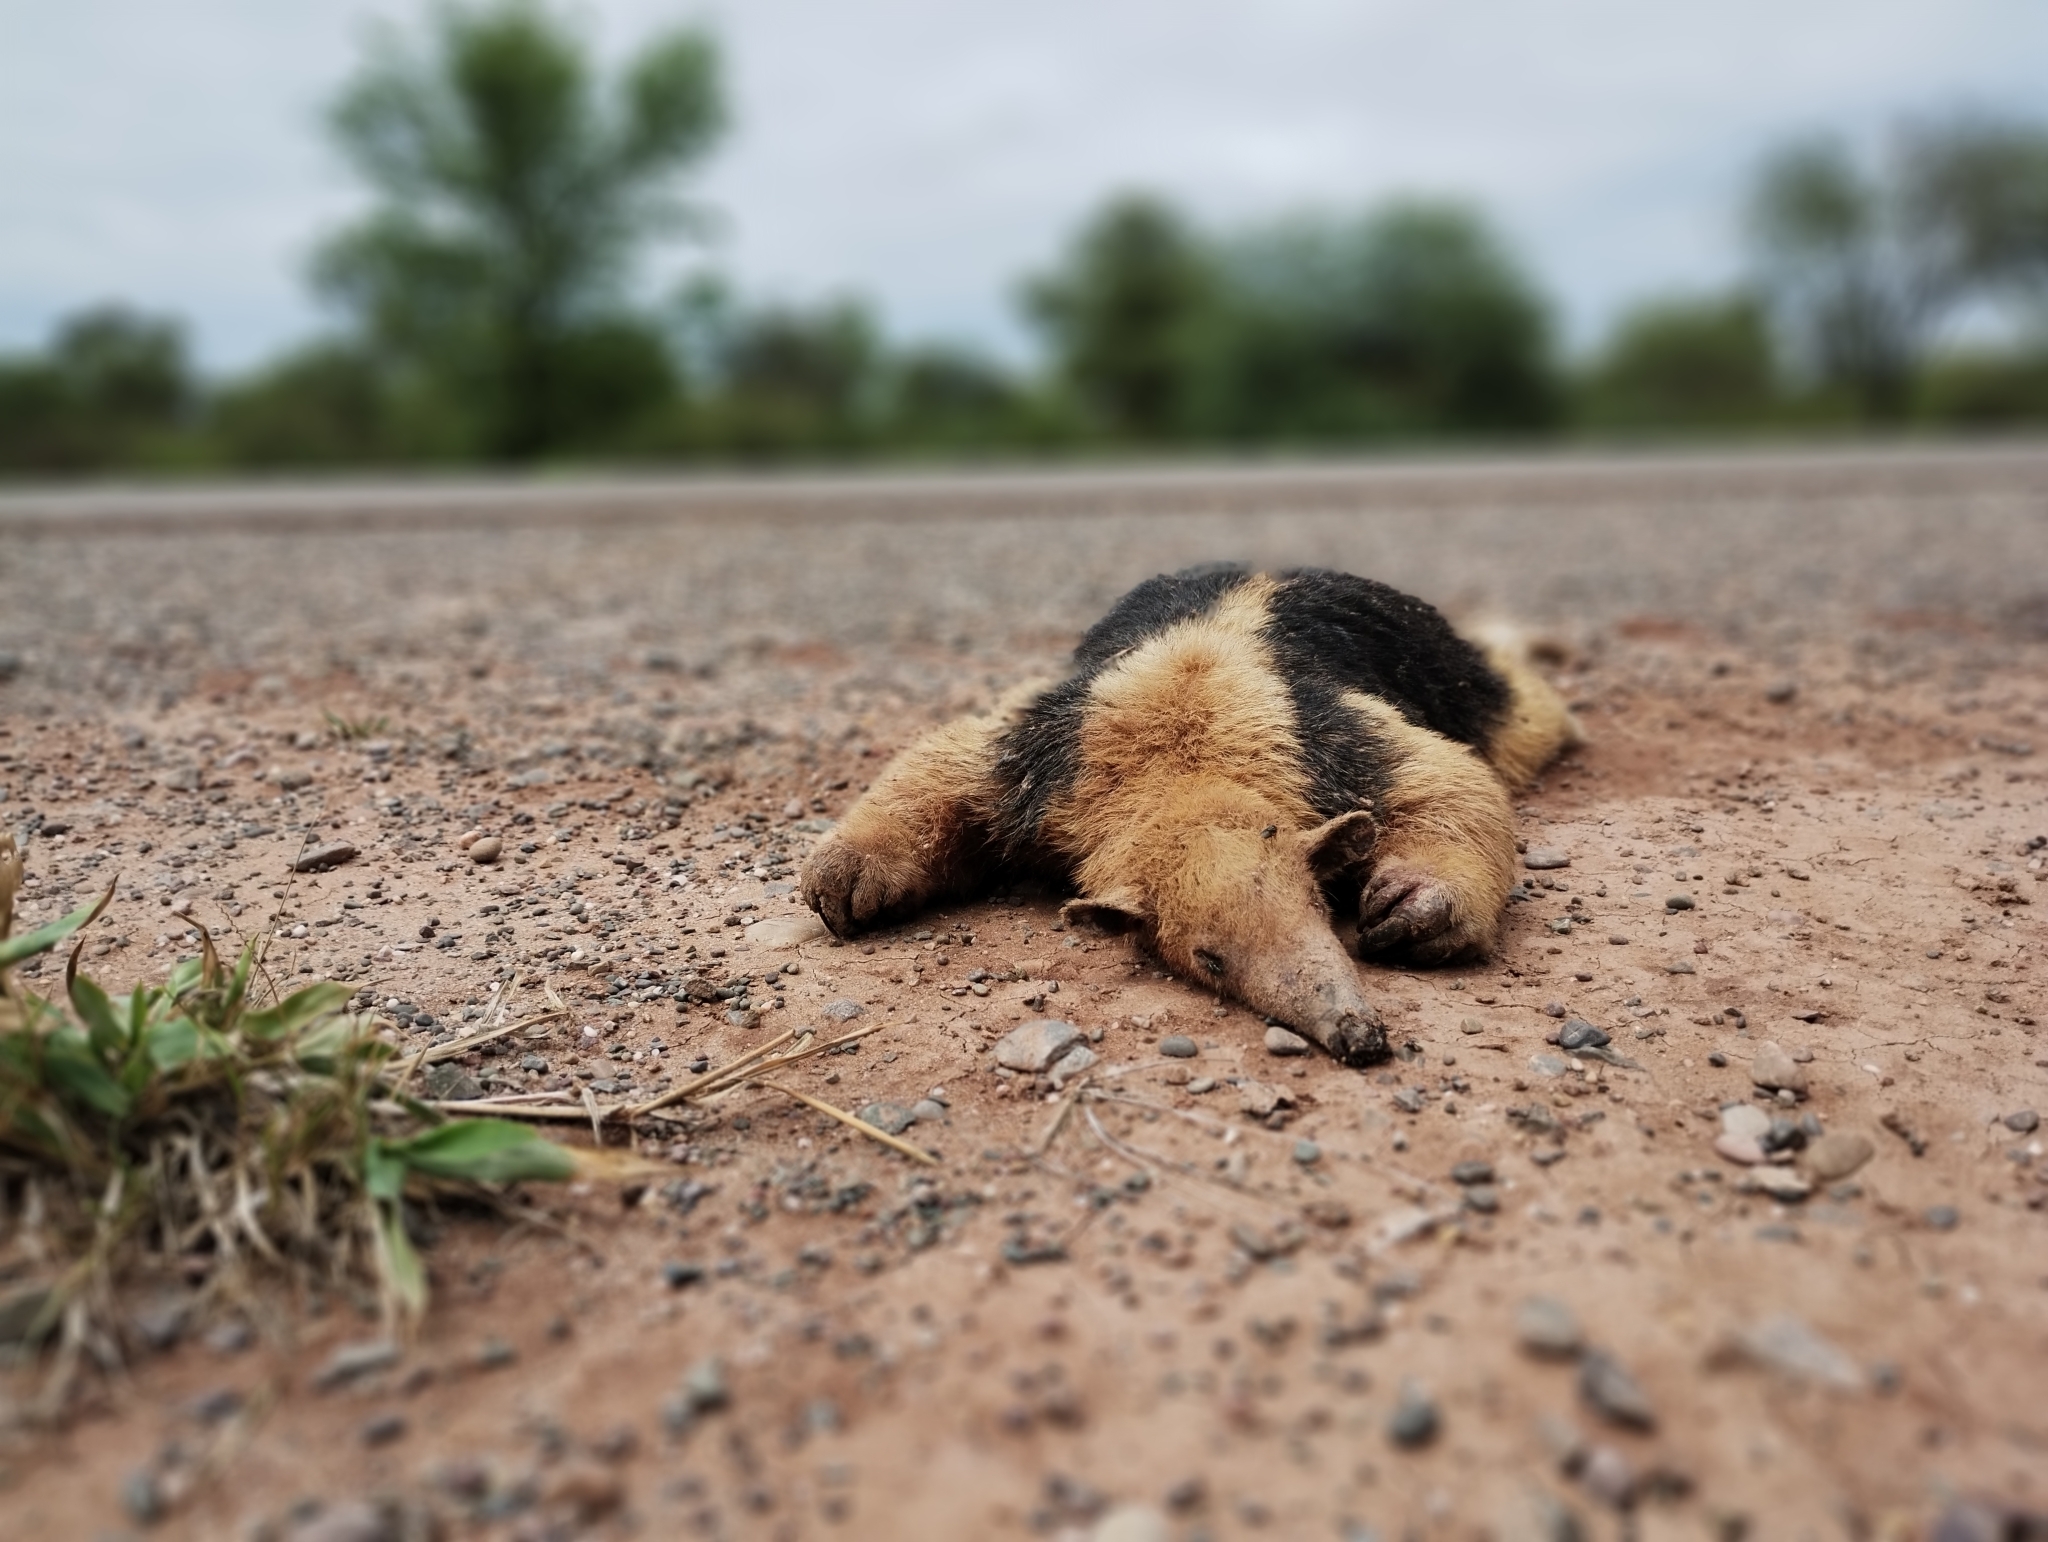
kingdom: Animalia
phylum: Chordata
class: Mammalia
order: Pilosa
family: Myrmecophagidae
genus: Tamandua
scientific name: Tamandua tetradactyla
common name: Southern tamandua
